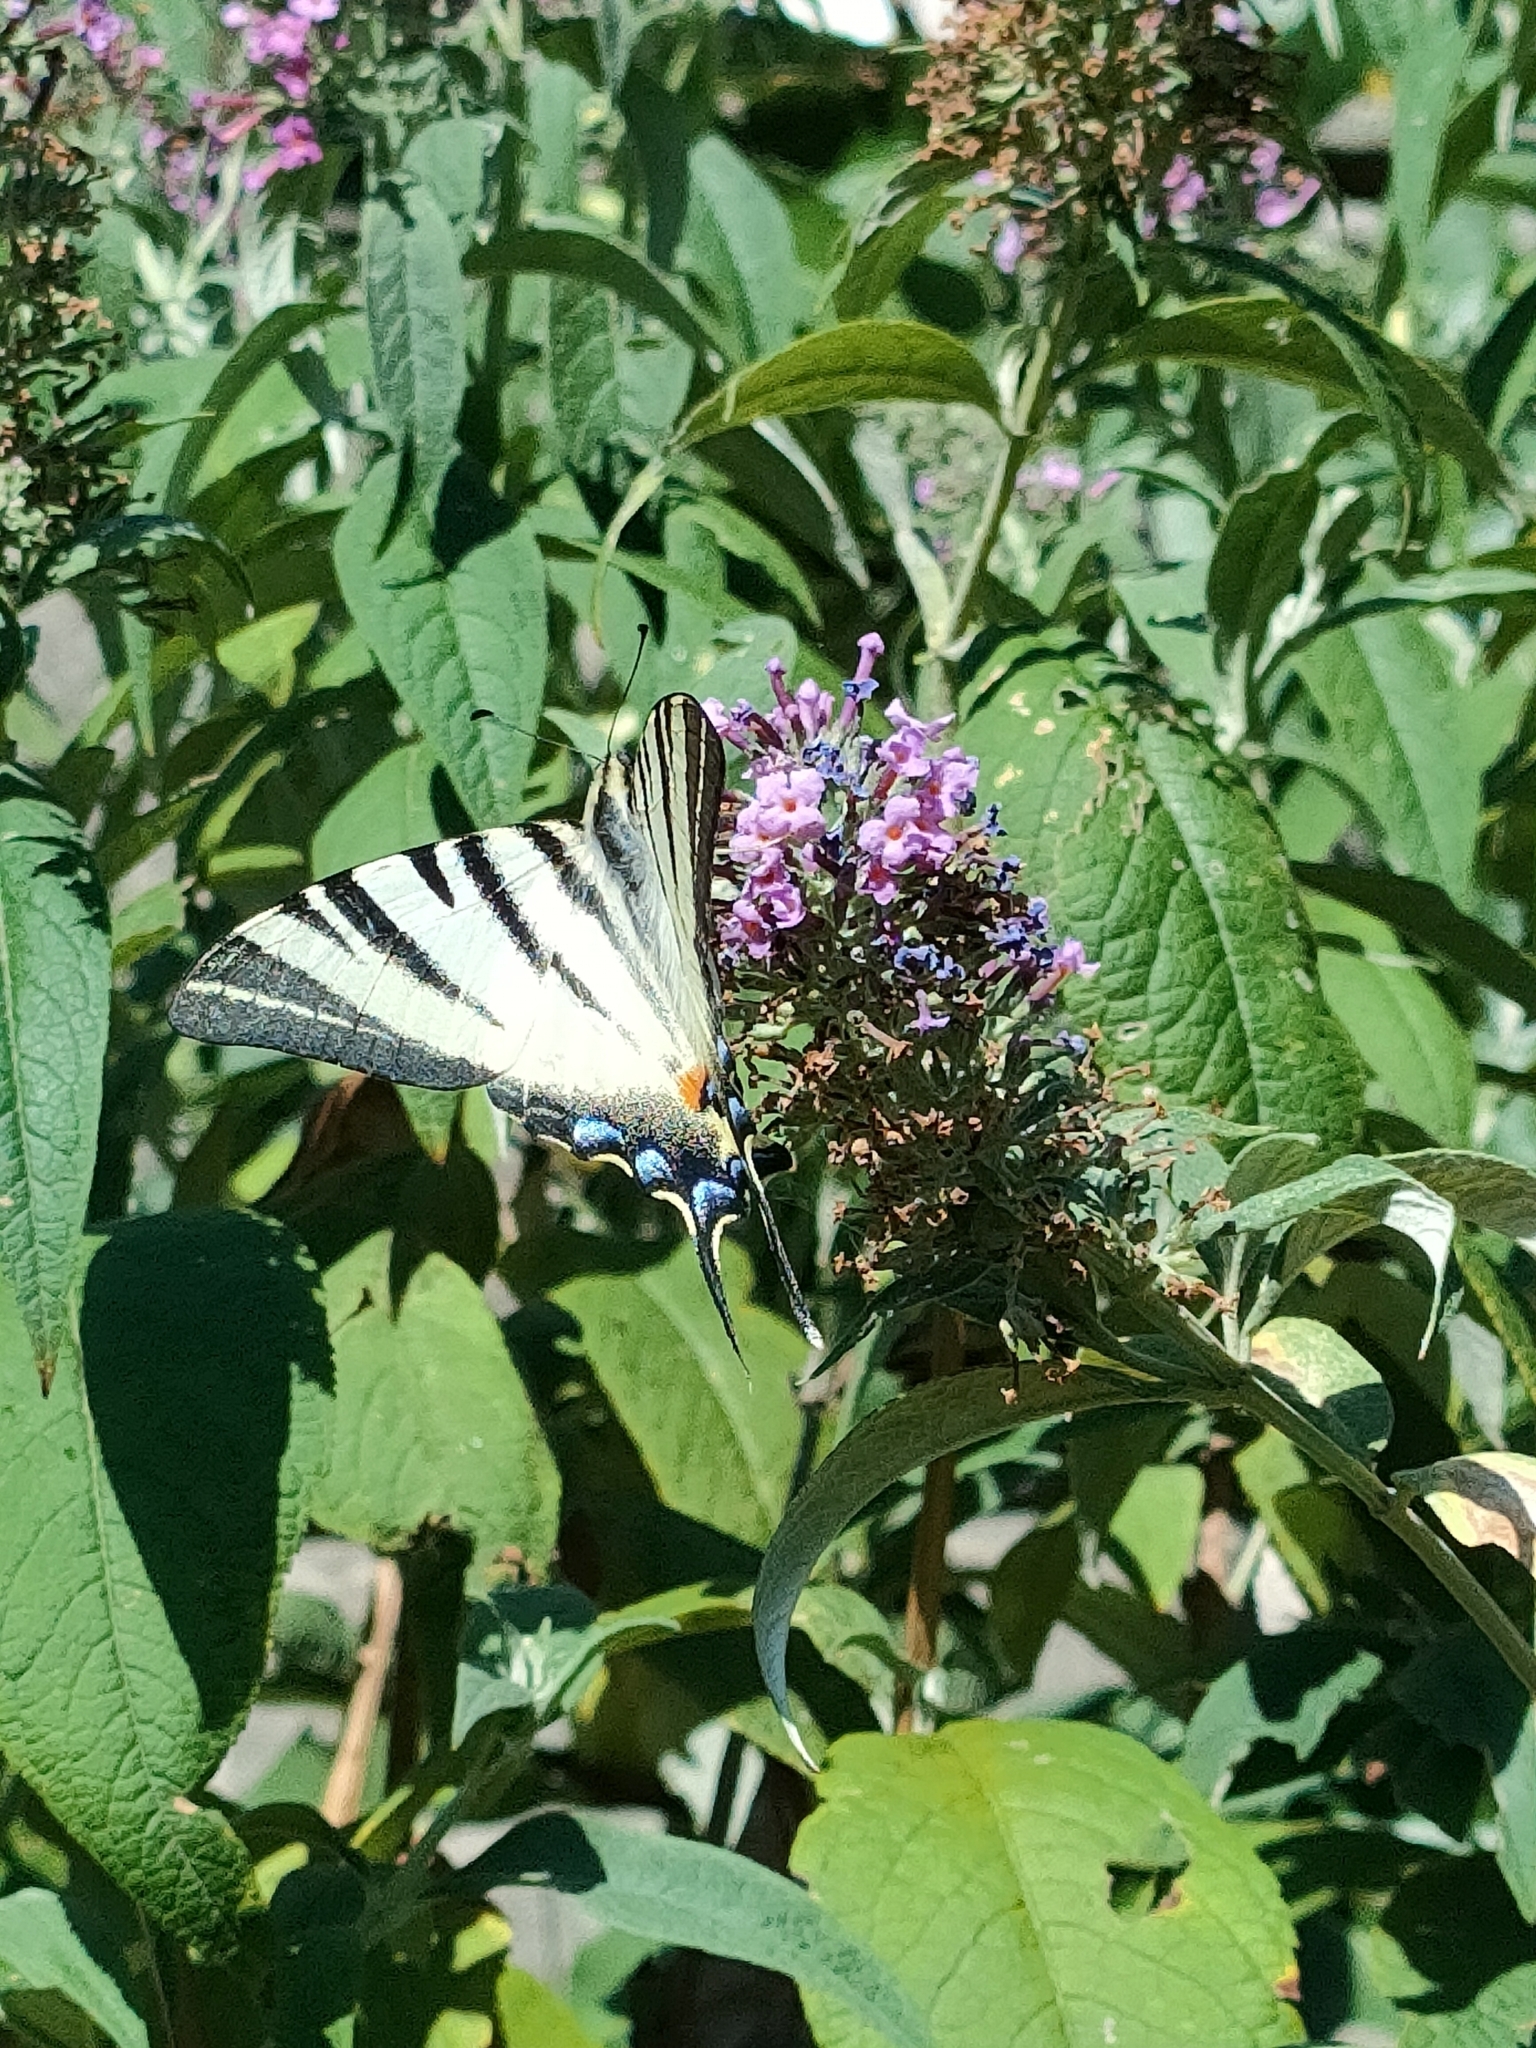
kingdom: Animalia
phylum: Arthropoda
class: Insecta
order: Lepidoptera
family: Papilionidae
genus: Iphiclides
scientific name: Iphiclides podalirius
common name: Scarce swallowtail
